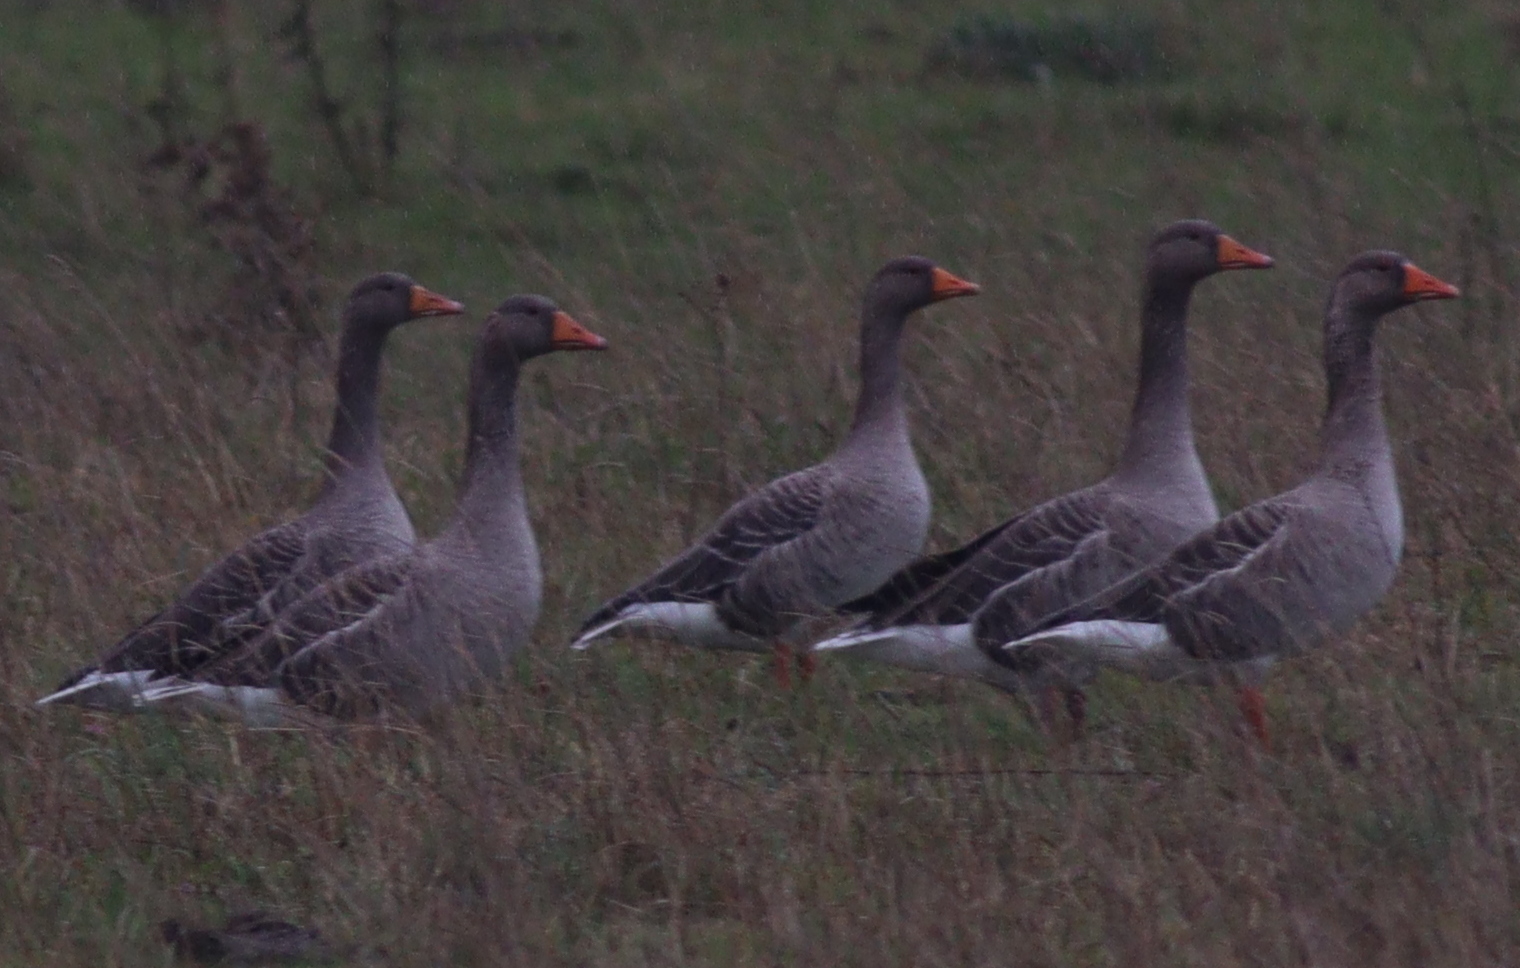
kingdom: Animalia
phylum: Chordata
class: Aves
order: Anseriformes
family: Anatidae
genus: Anser
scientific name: Anser anser
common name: Greylag goose
